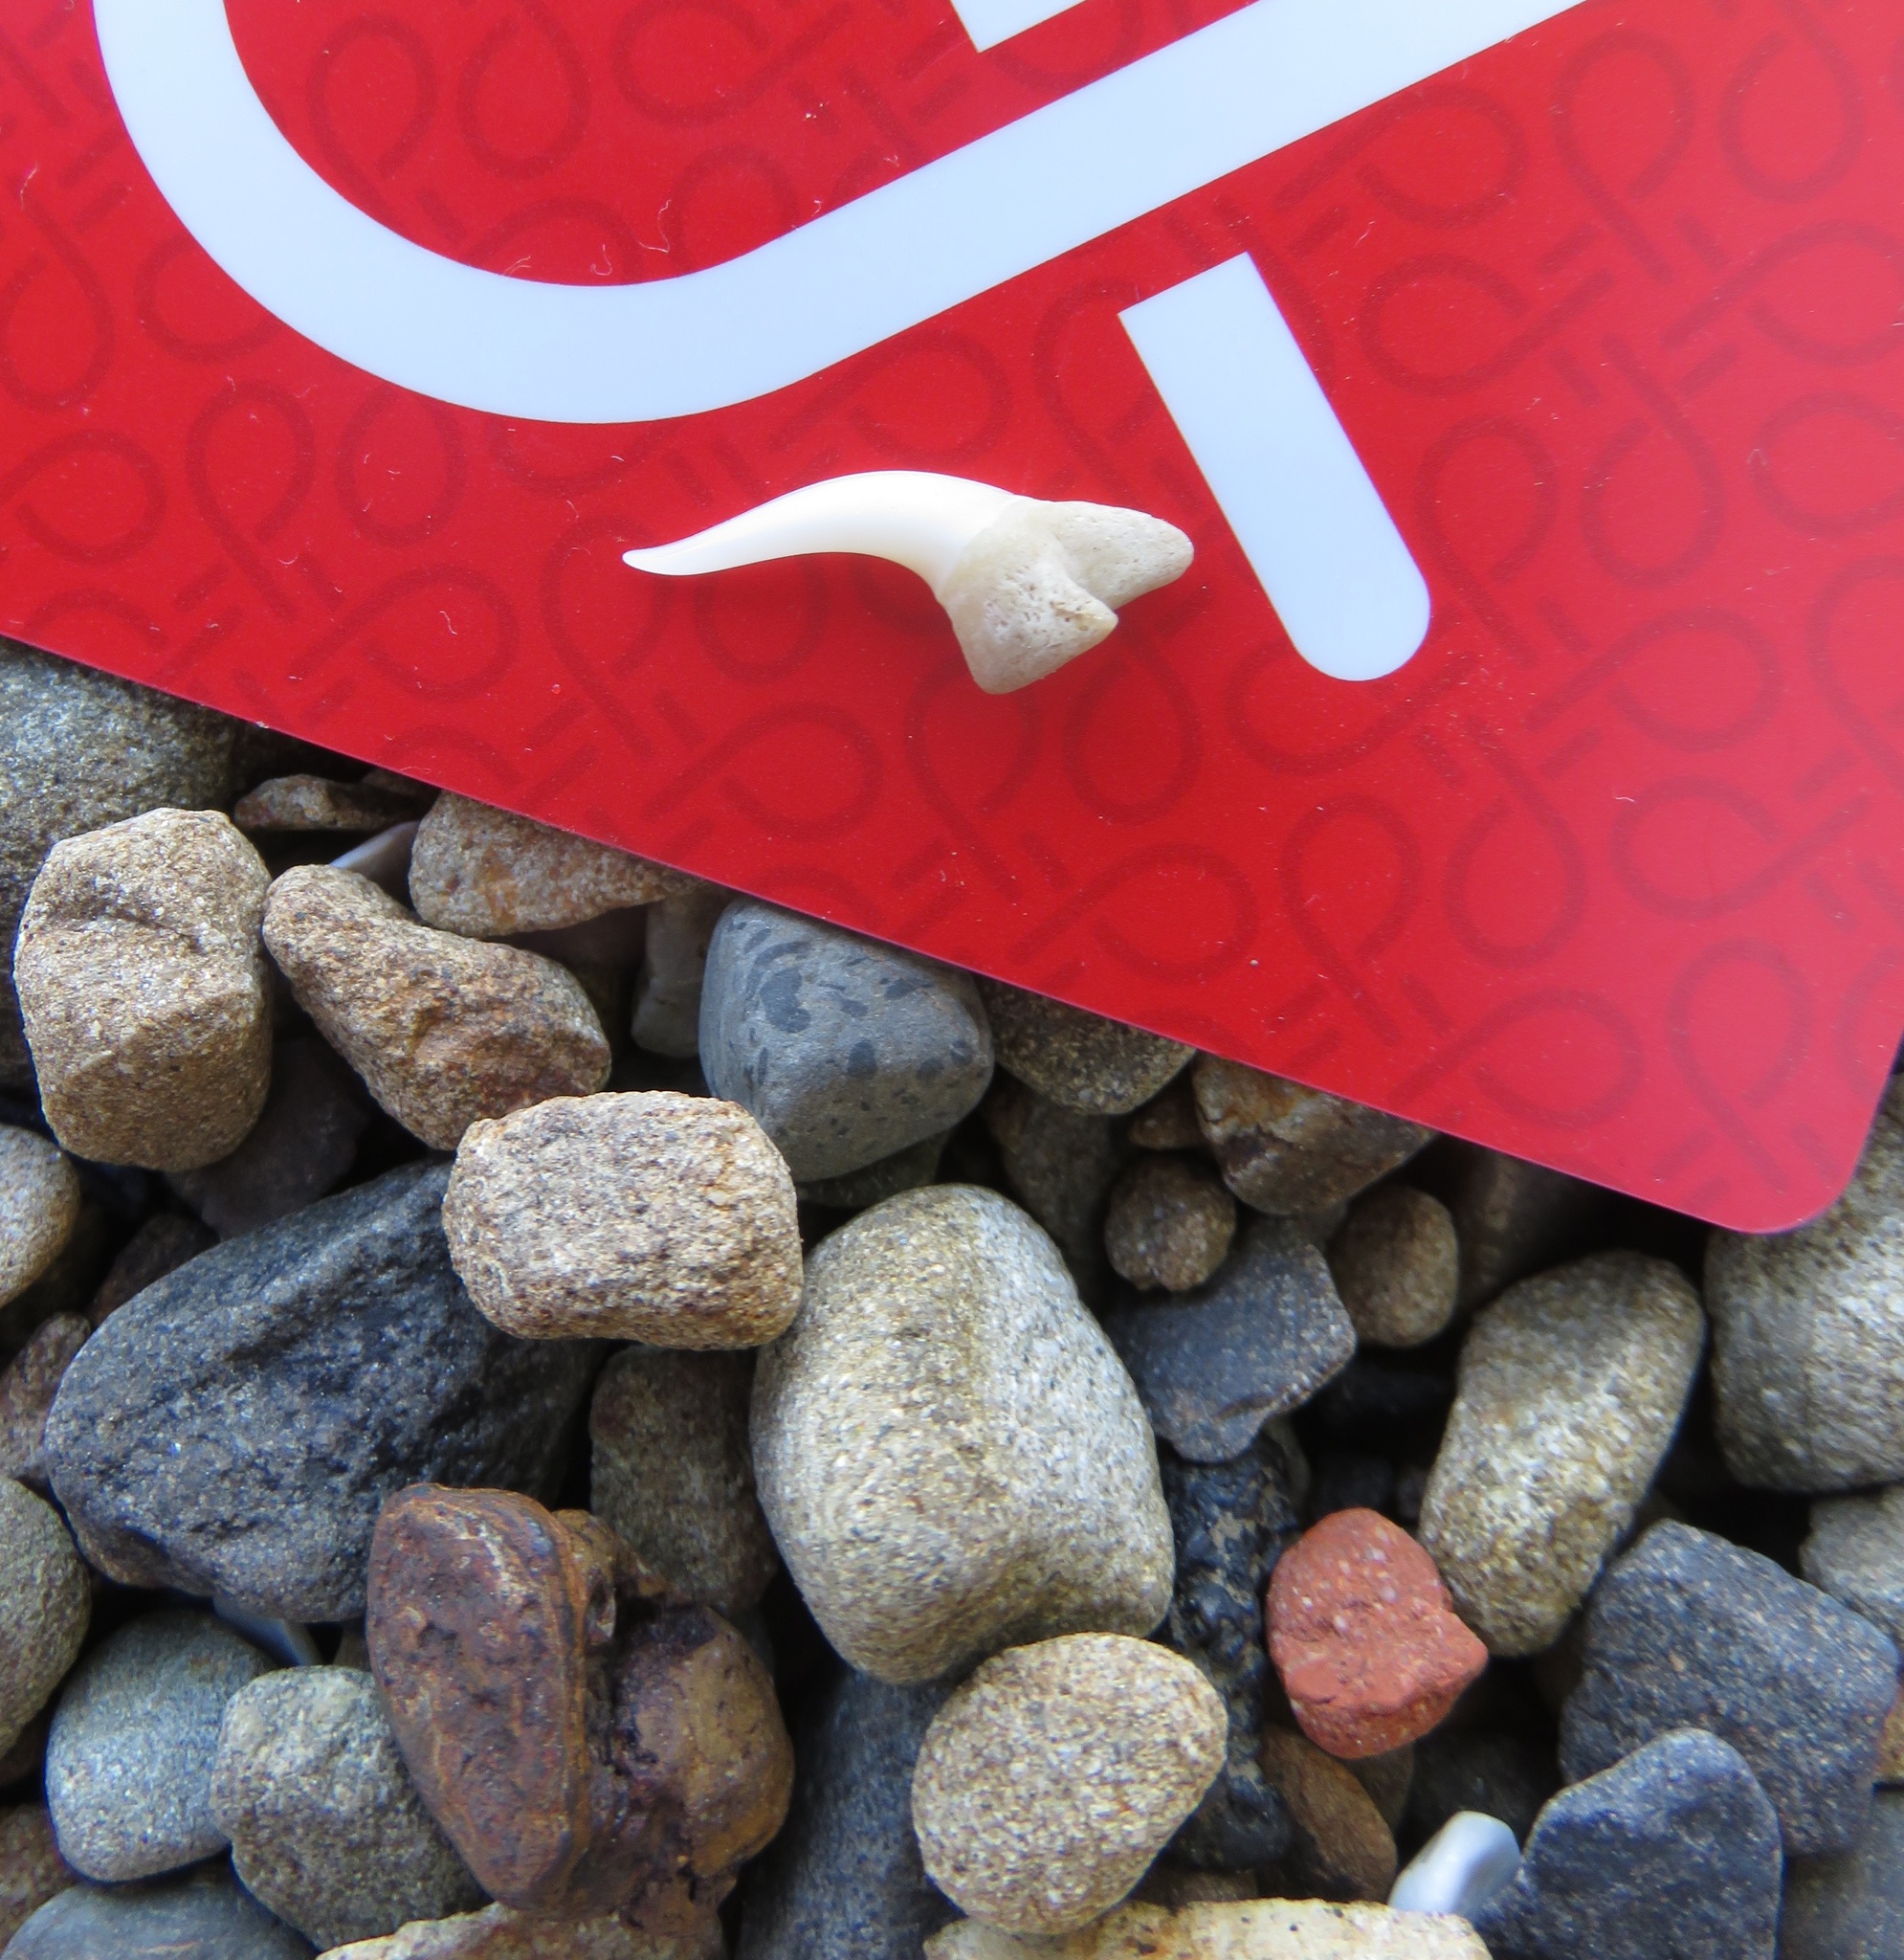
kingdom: Animalia
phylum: Chordata
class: Elasmobranchii
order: Lamniformes
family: Lamnidae
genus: Isurus
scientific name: Isurus oxyrinchus
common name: Shortfin mako
